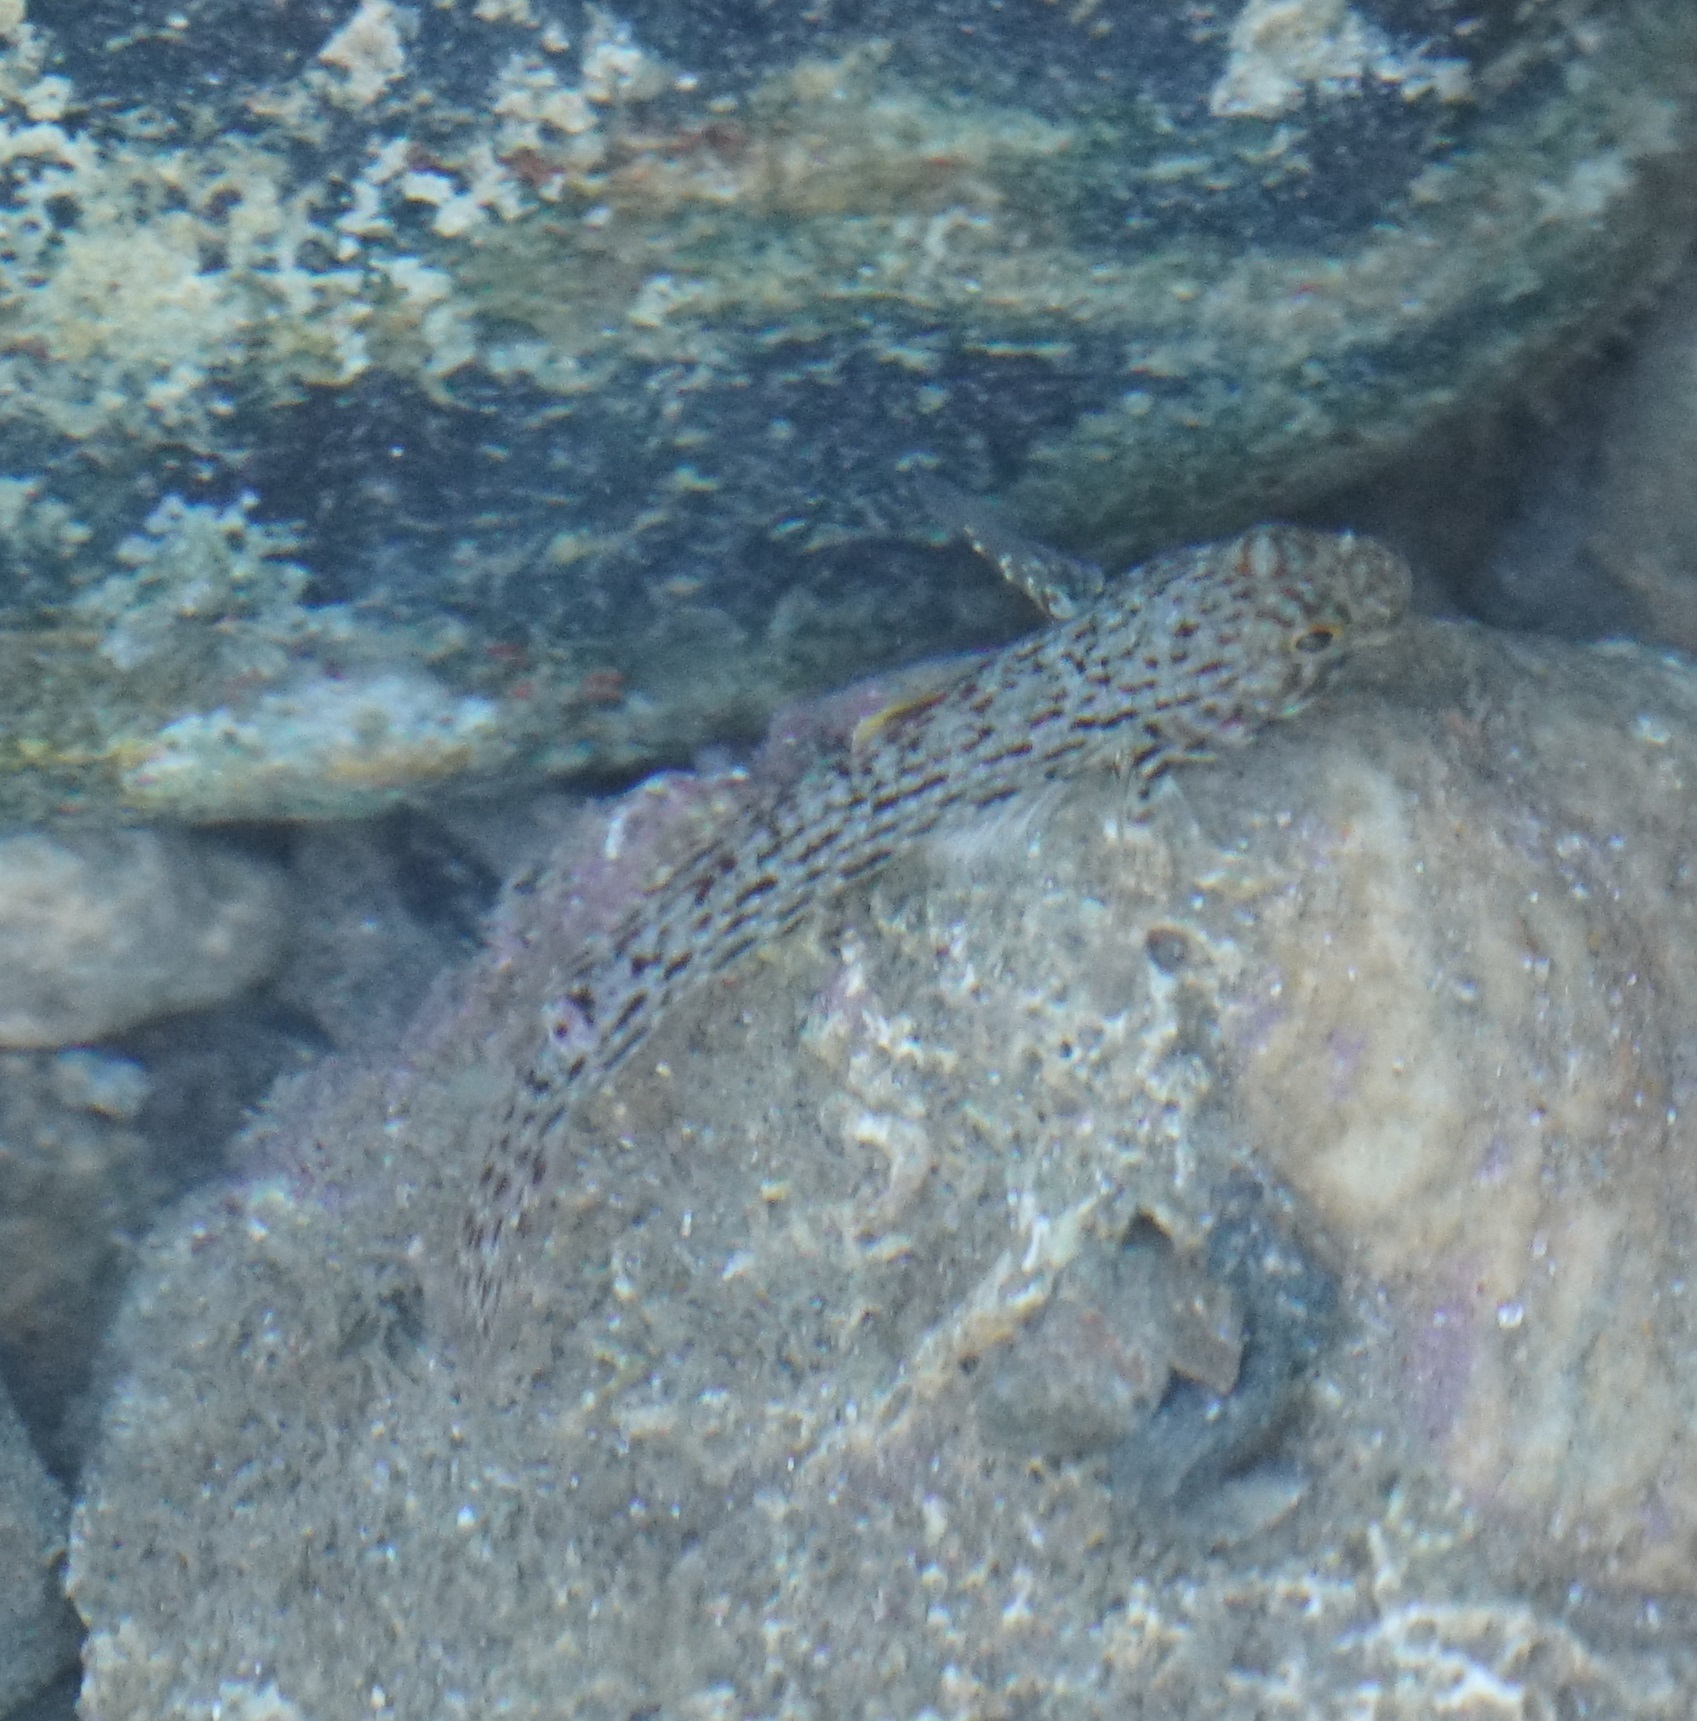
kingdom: Animalia
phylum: Chordata
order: Perciformes
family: Gobiidae
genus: Istigobius
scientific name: Istigobius ornatus
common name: Ornate goby
